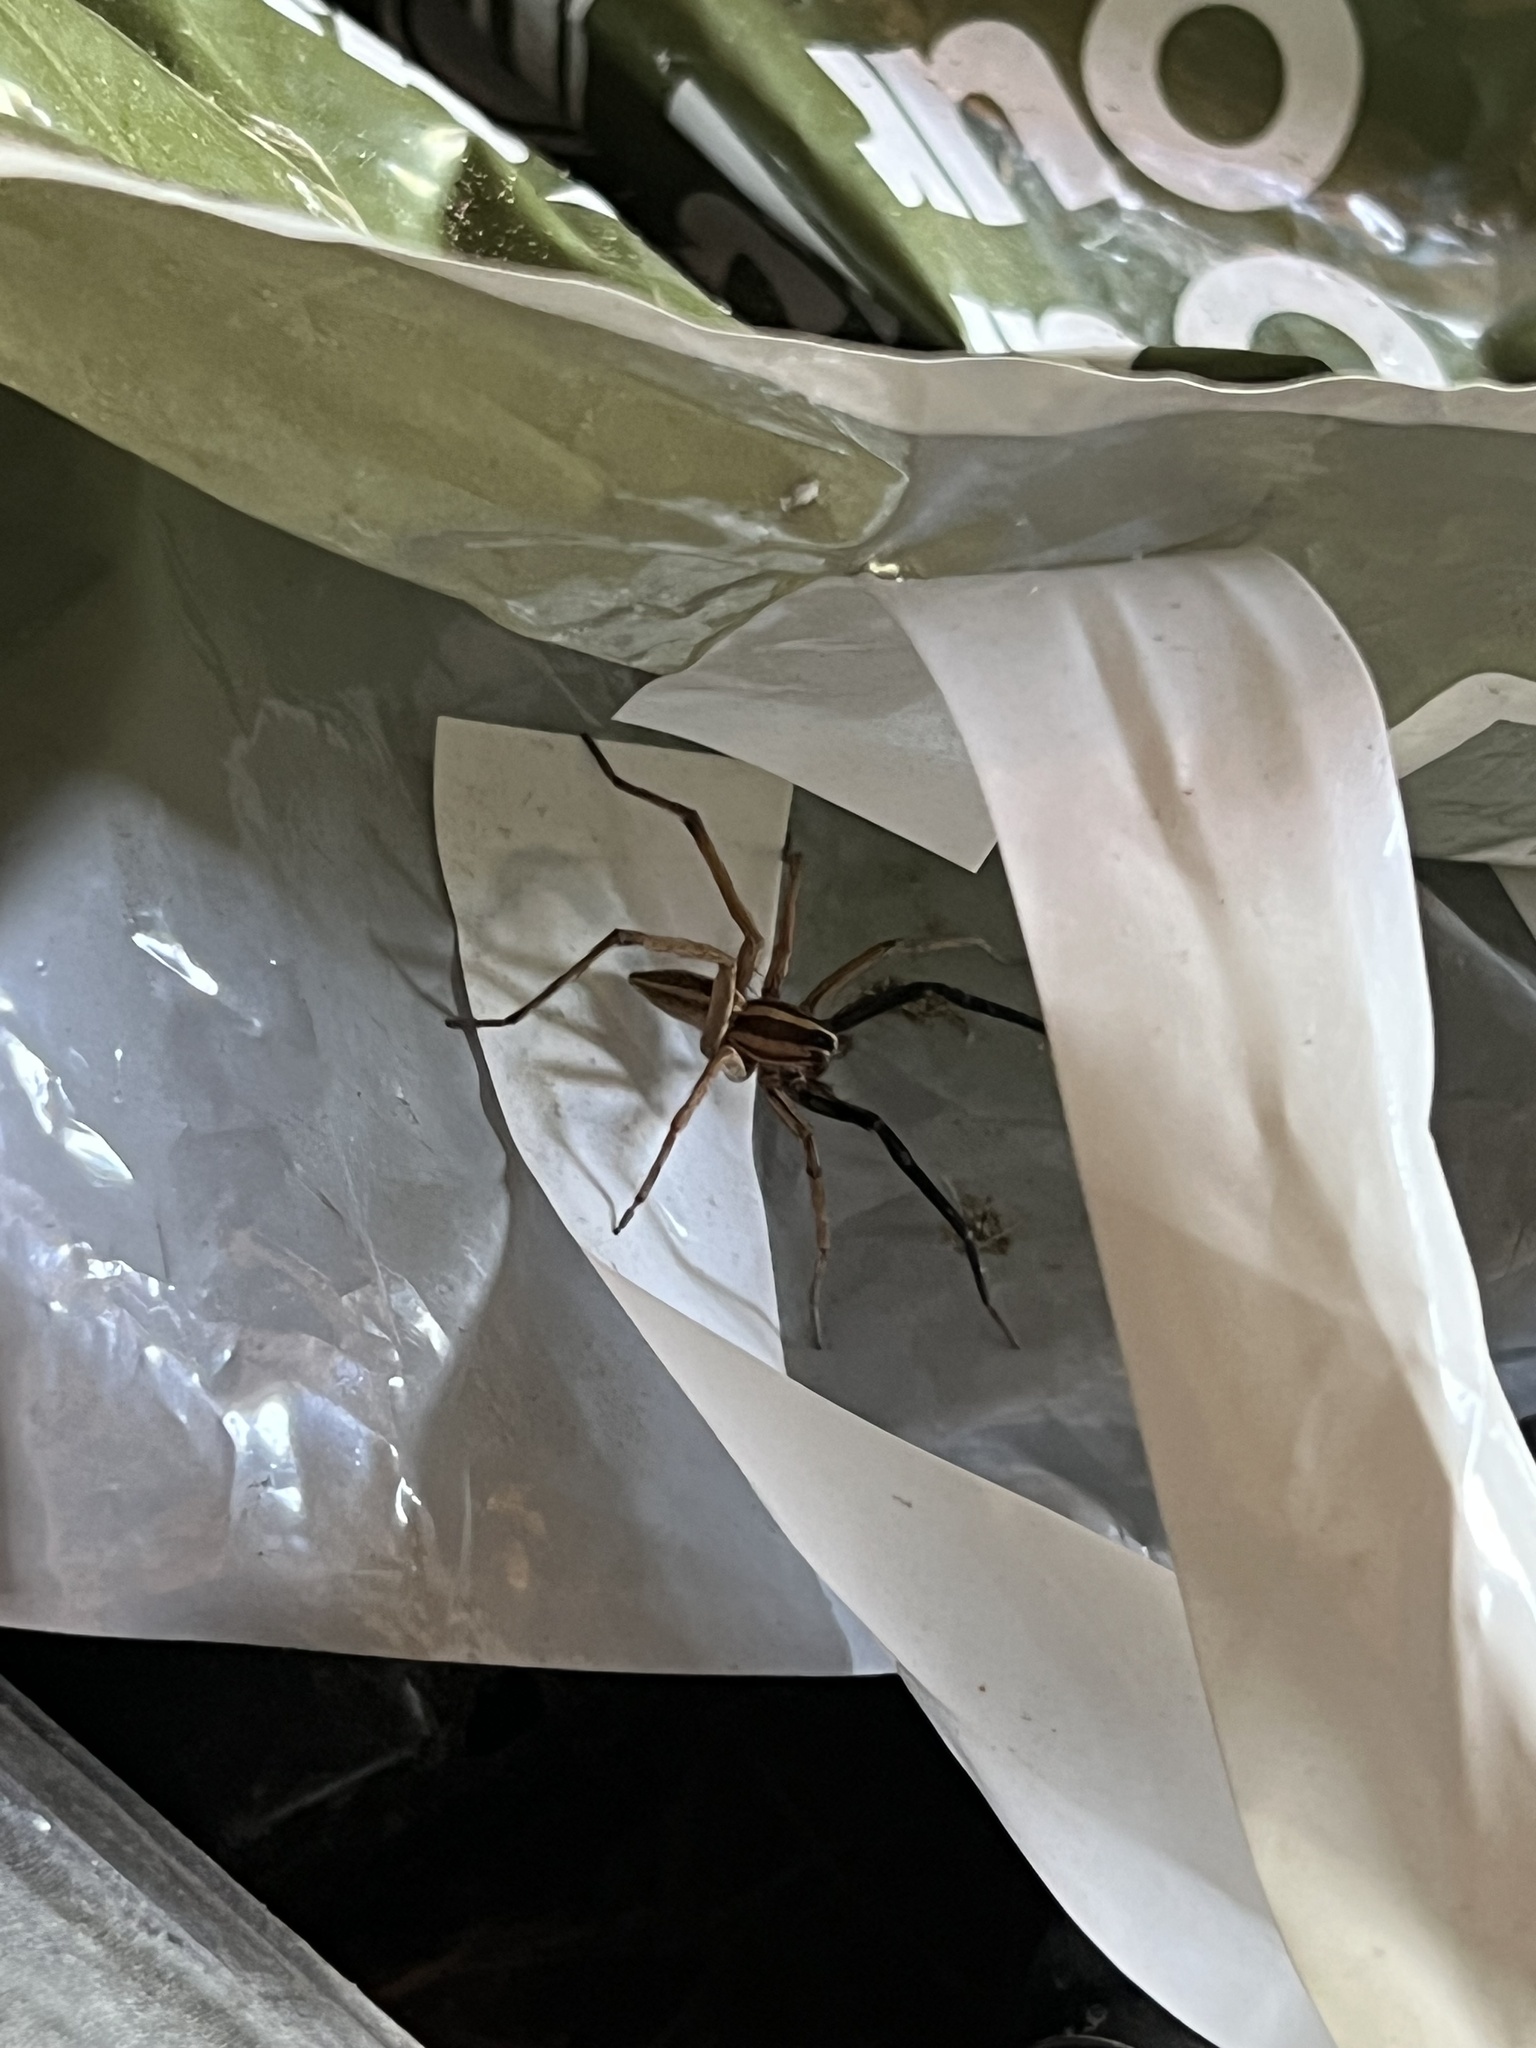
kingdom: Animalia
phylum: Arthropoda
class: Arachnida
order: Araneae
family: Lycosidae
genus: Rabidosa
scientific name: Rabidosa rabida
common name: Rabid wolf spider
